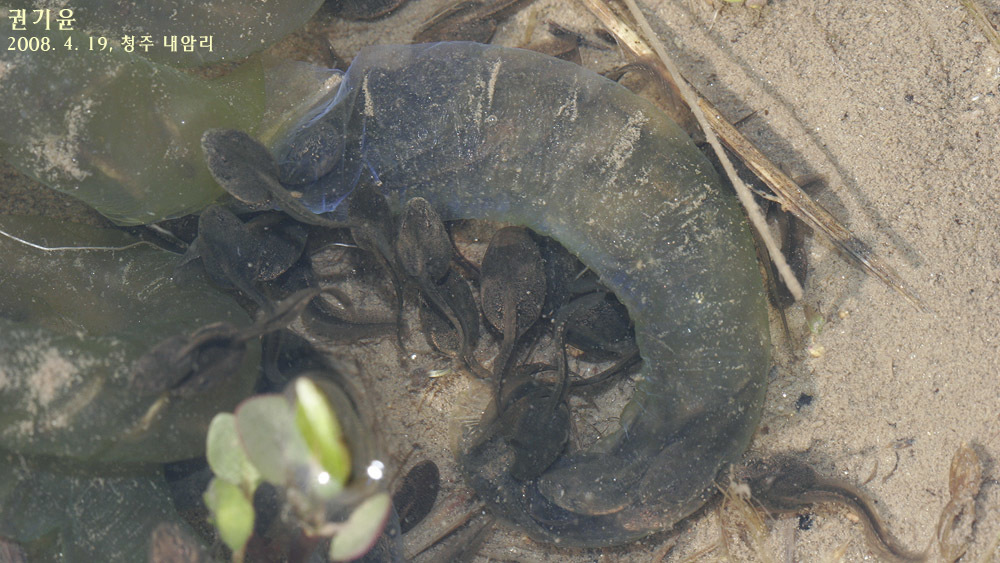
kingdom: Animalia
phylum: Chordata
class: Amphibia
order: Anura
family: Ranidae
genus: Rana
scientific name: Rana uenoi
